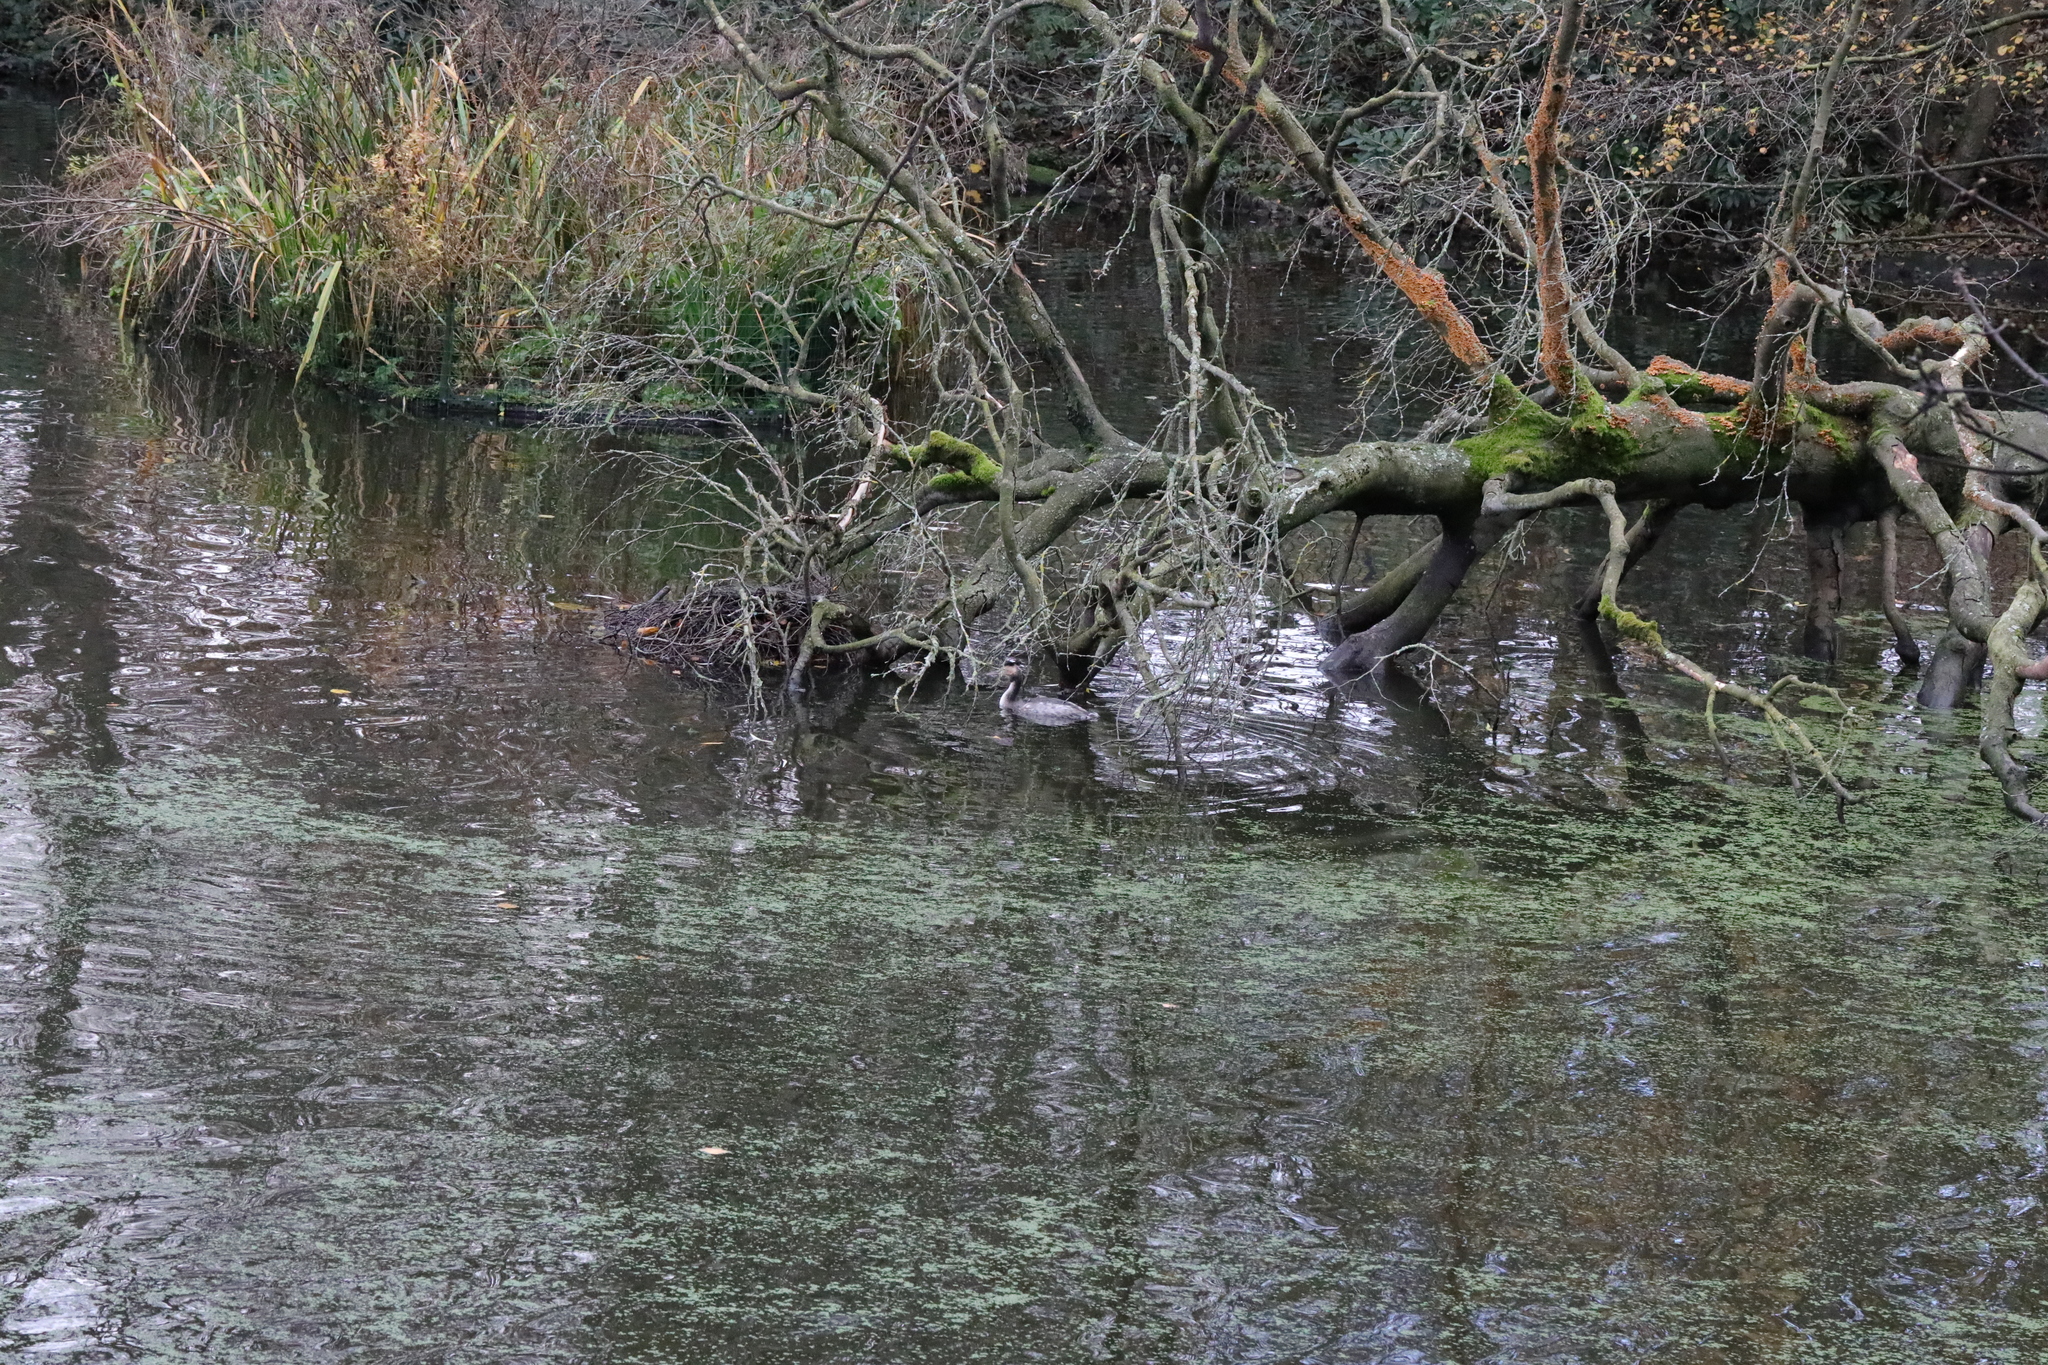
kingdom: Animalia
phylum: Chordata
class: Aves
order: Podicipediformes
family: Podicipedidae
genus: Podiceps
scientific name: Podiceps cristatus
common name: Great crested grebe
